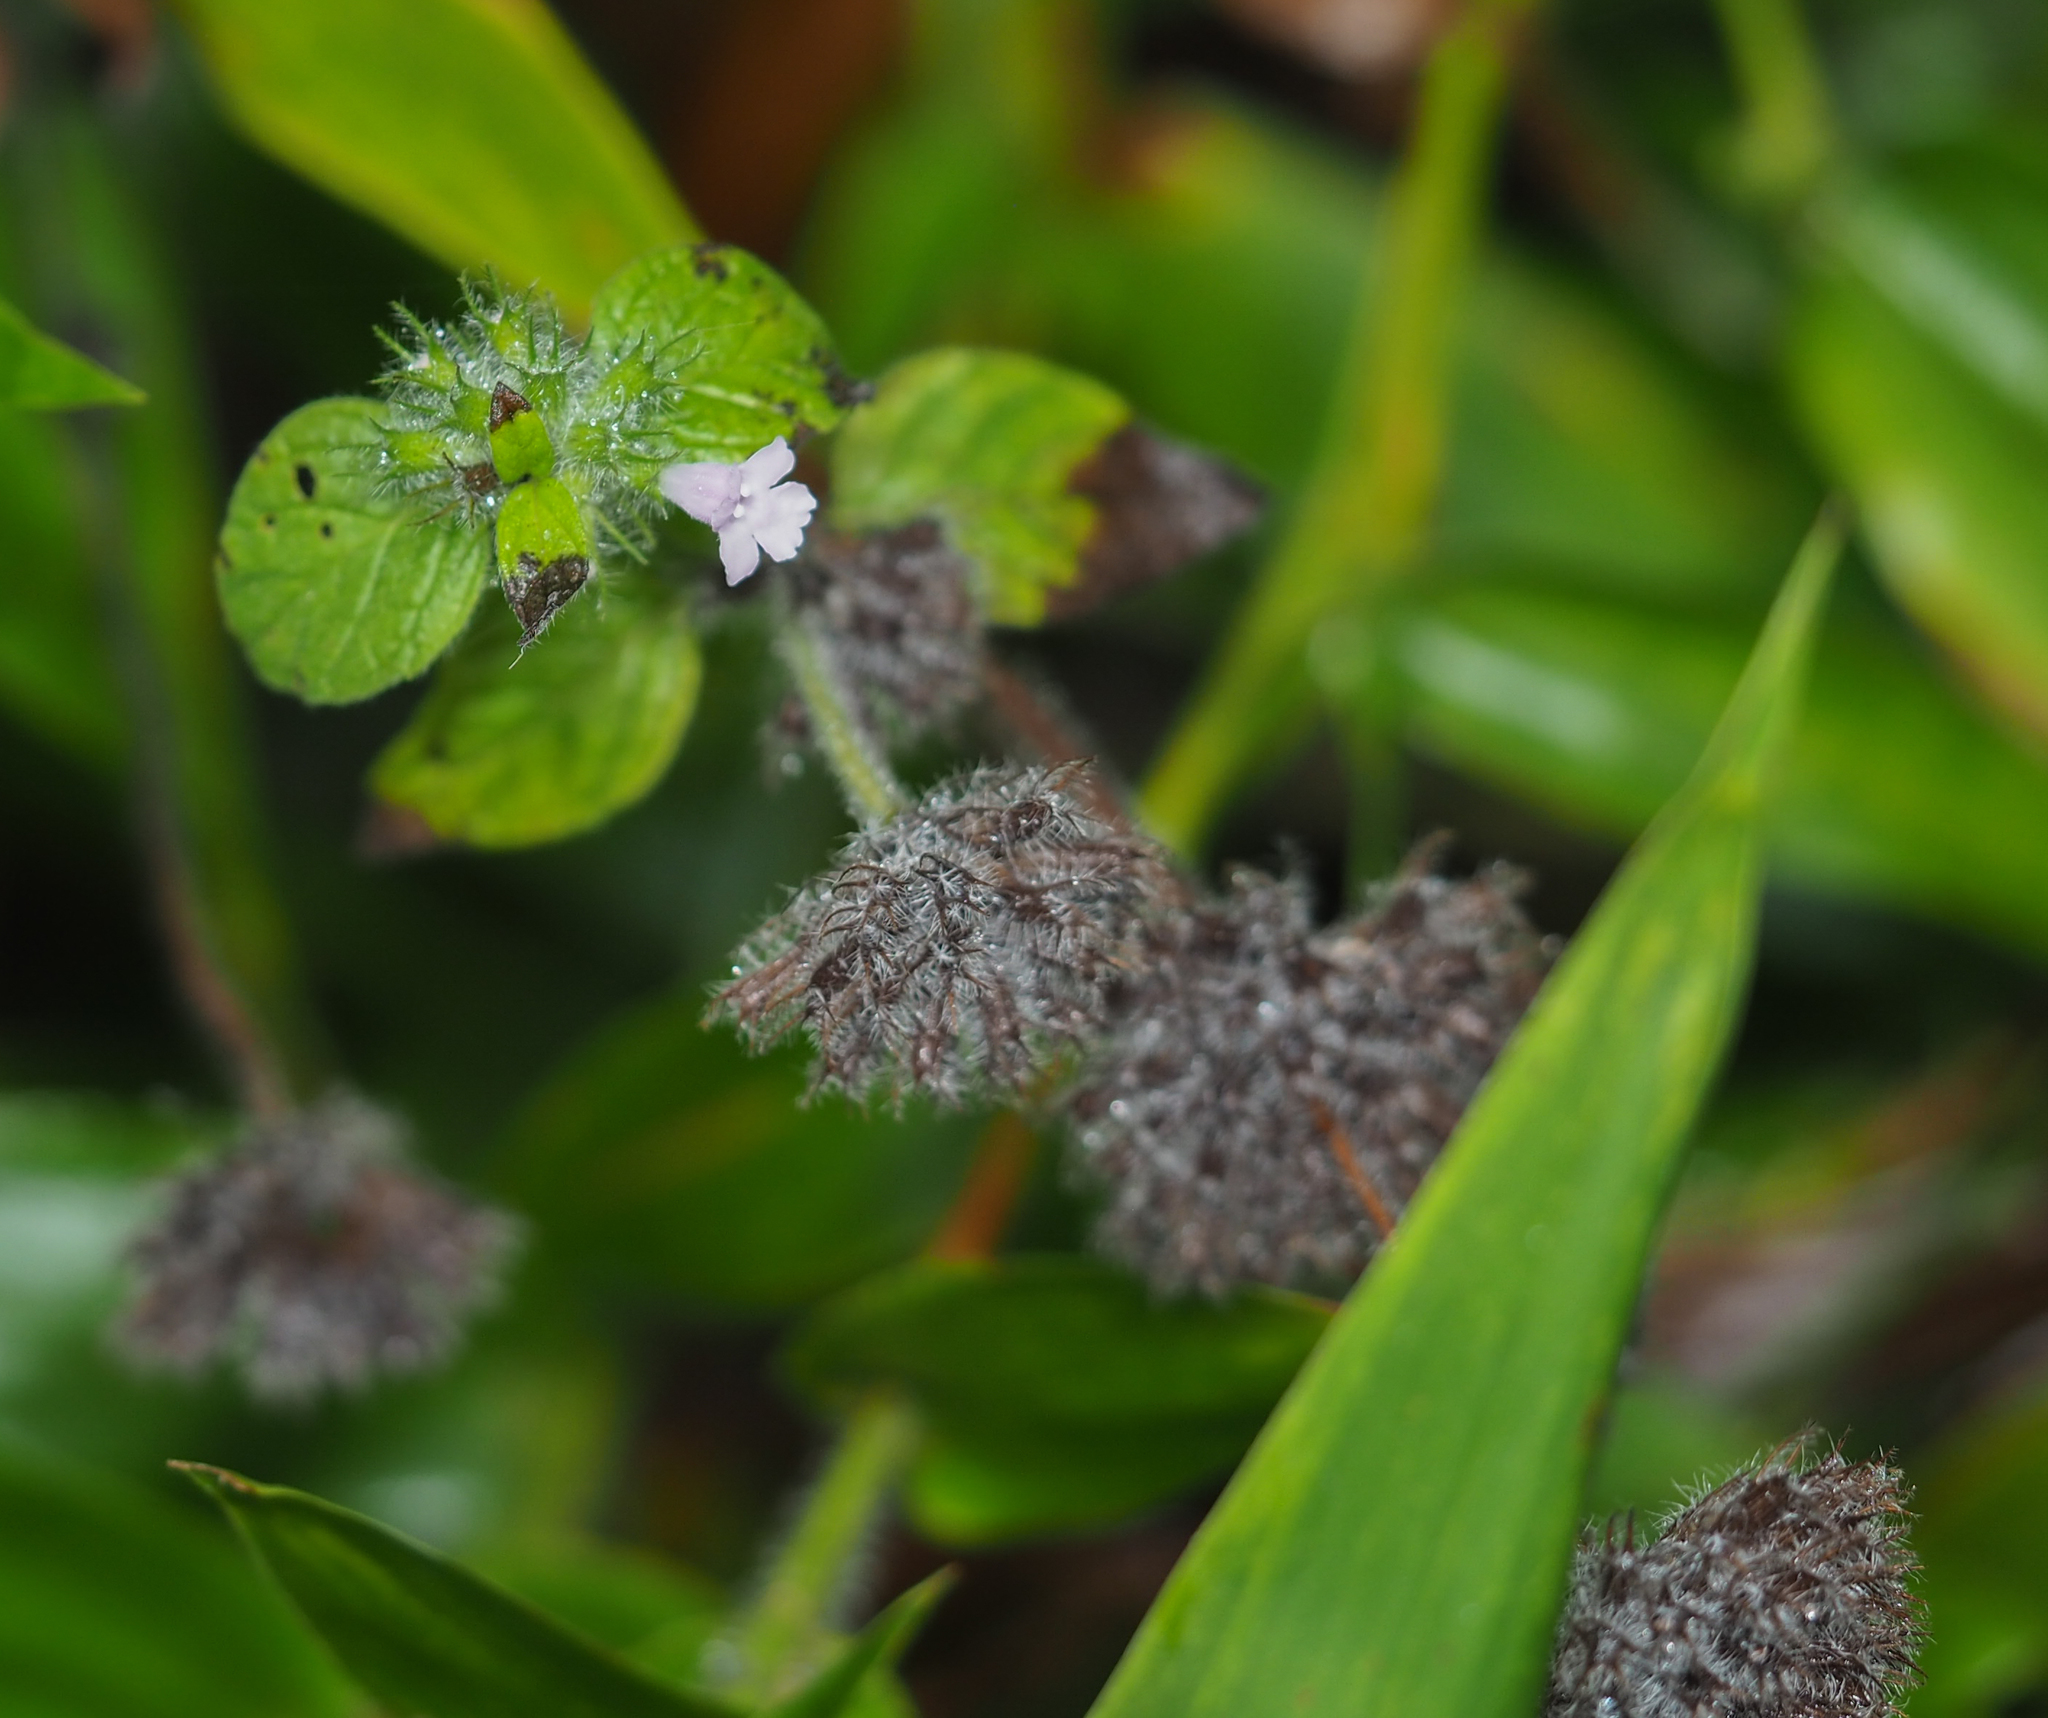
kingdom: Plantae
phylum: Tracheophyta
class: Magnoliopsida
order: Lamiales
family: Lamiaceae
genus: Clinopodium
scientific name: Clinopodium vulgare
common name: Wild basil
